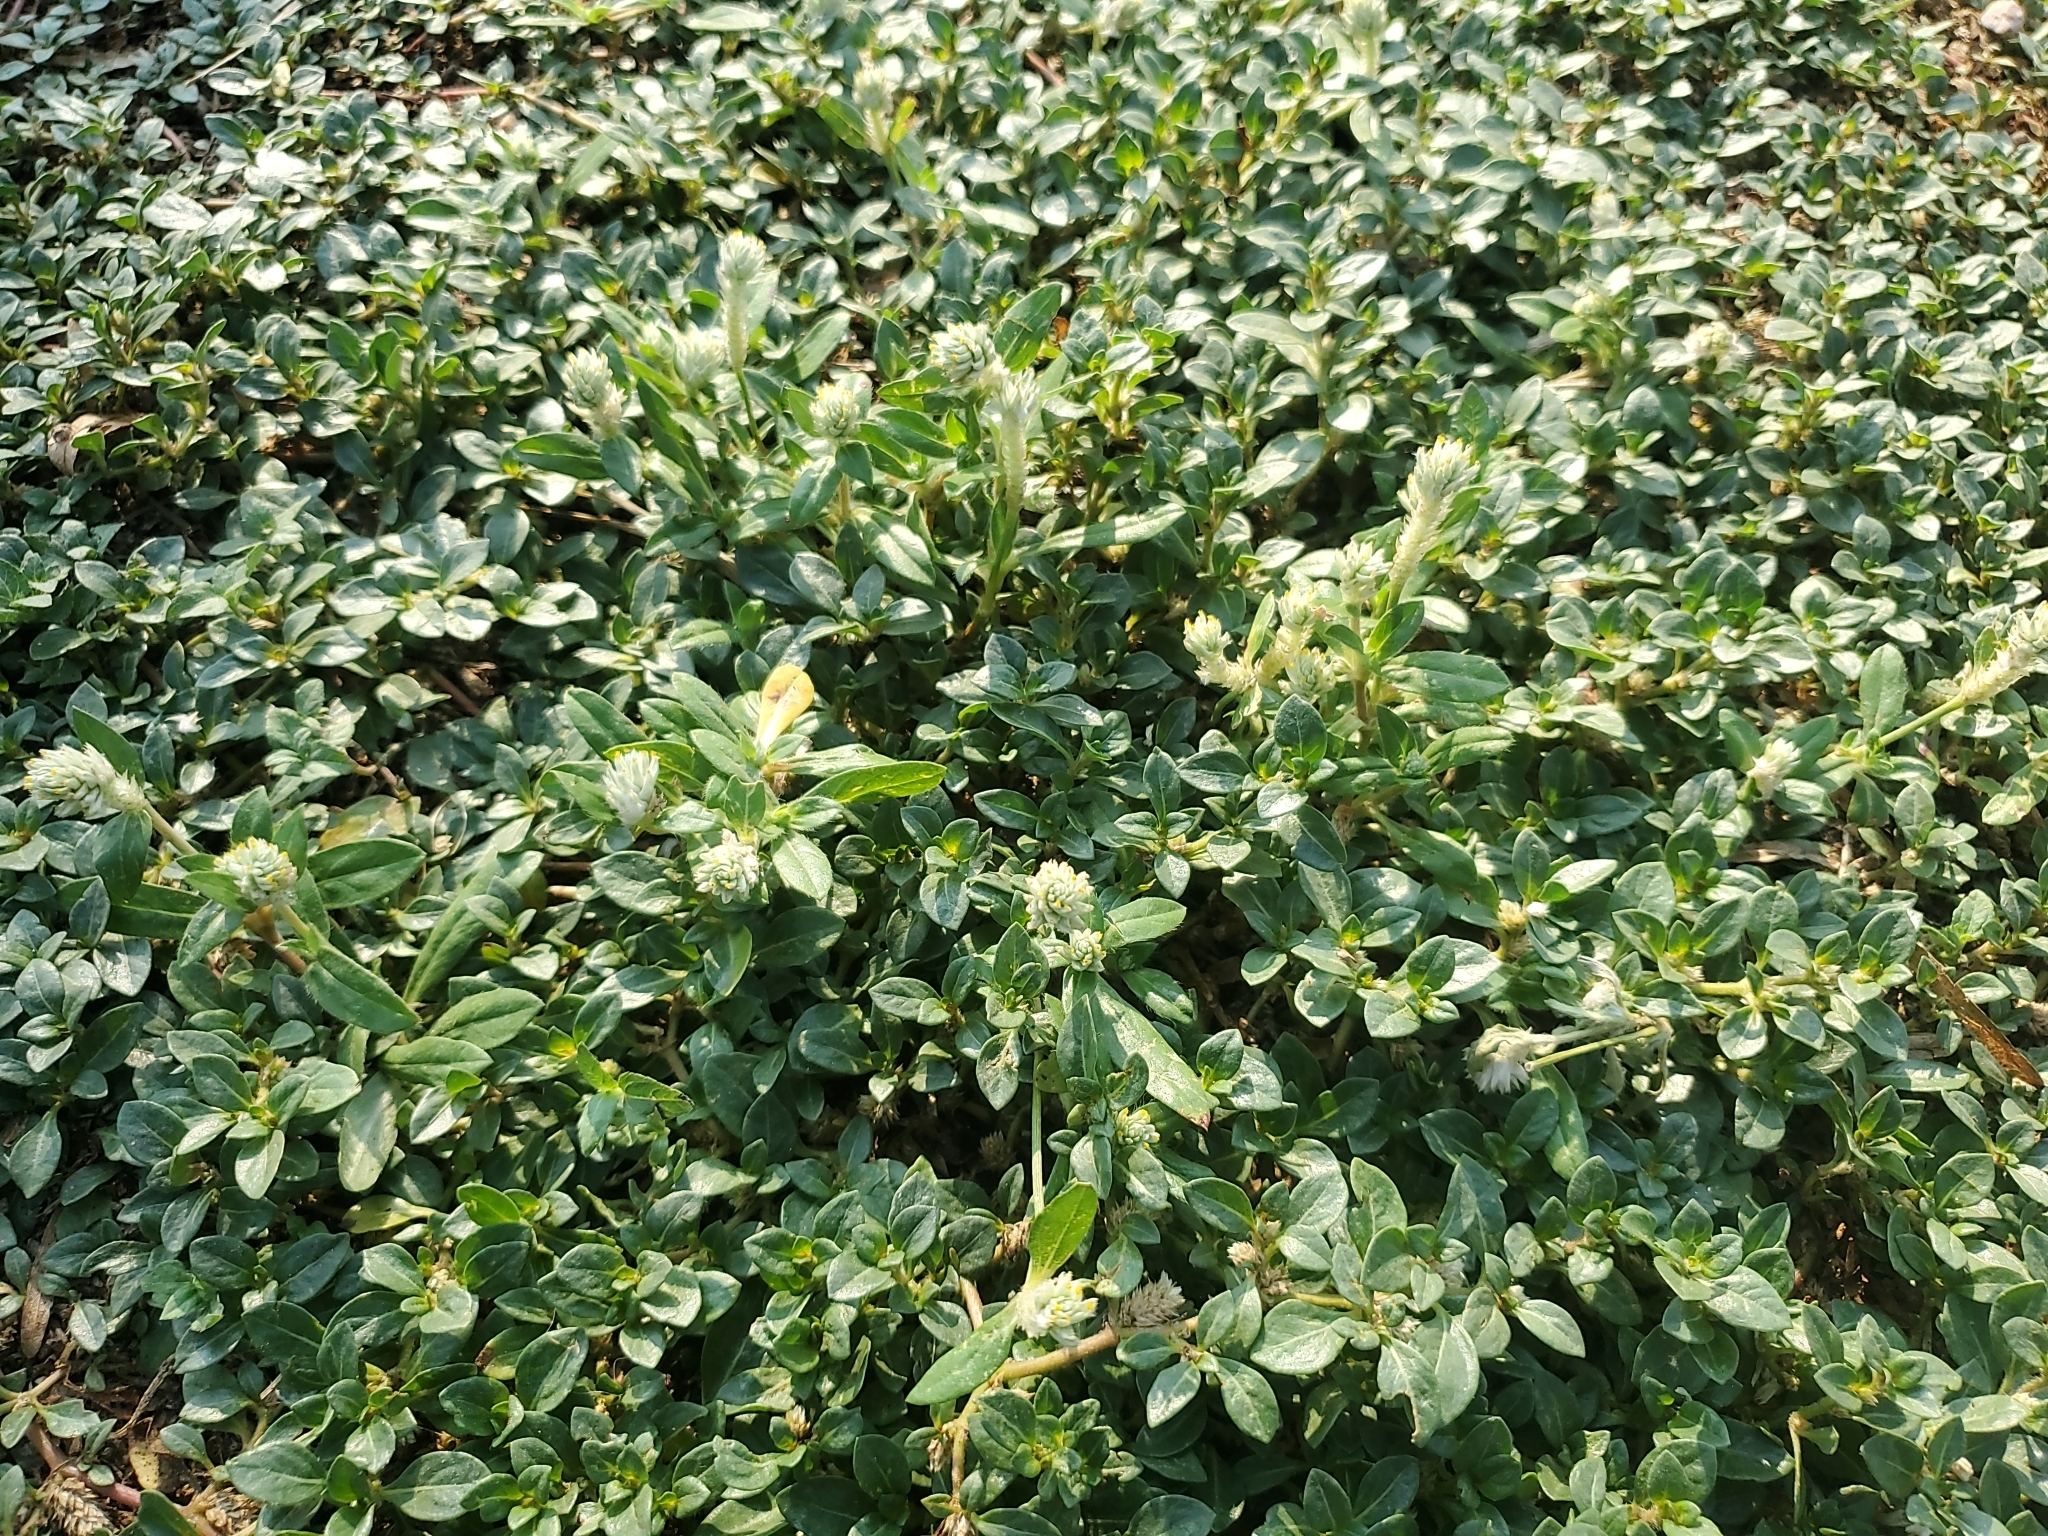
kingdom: Plantae
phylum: Tracheophyta
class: Magnoliopsida
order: Caryophyllales
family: Amaranthaceae
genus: Gomphrena
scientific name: Gomphrena serrata
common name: Arrasa con todo
